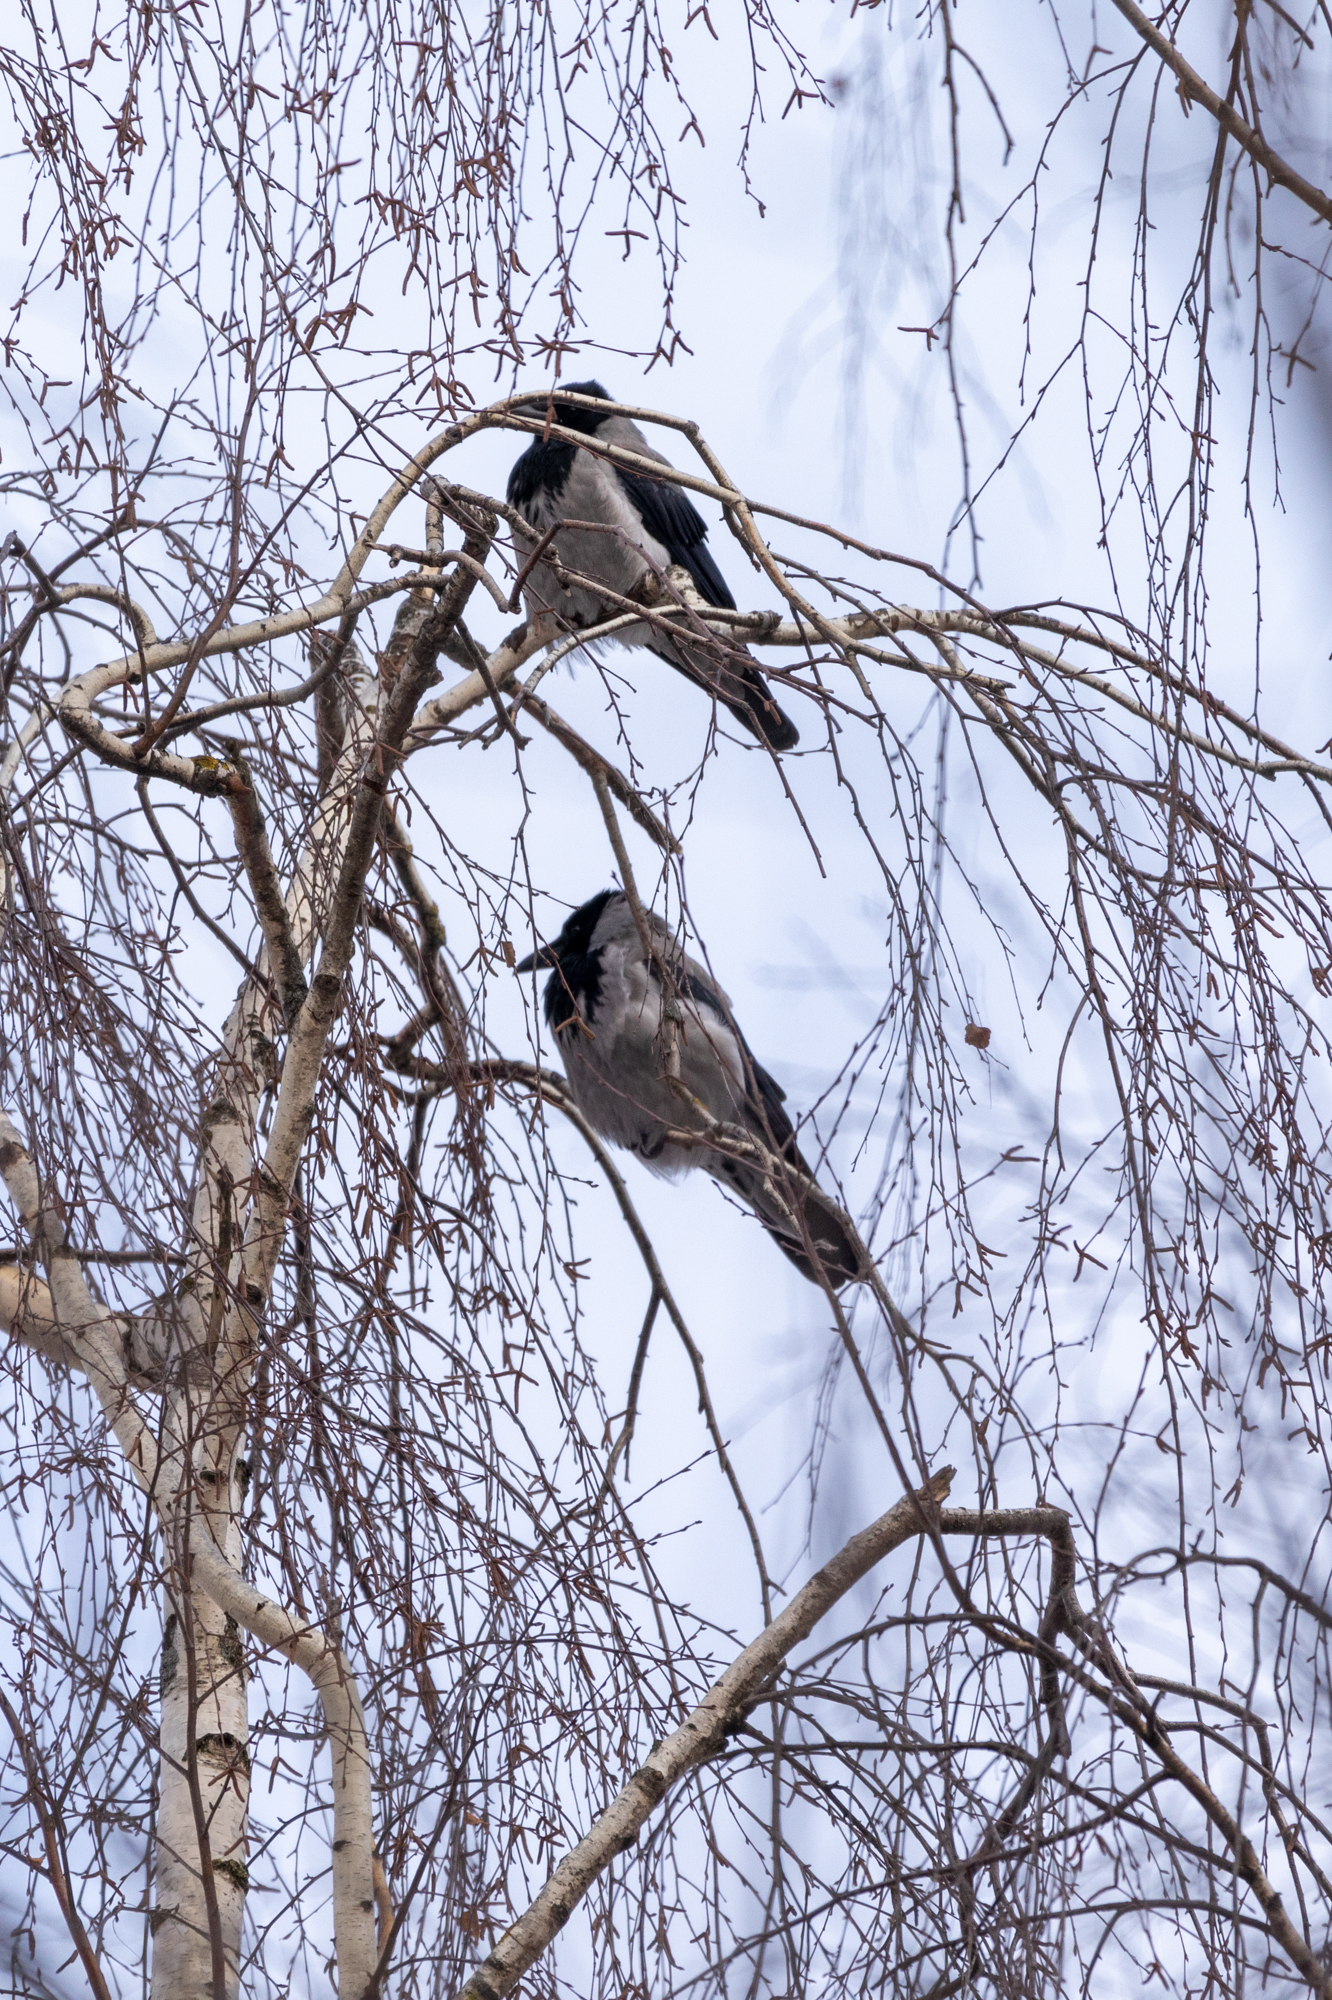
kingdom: Animalia
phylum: Chordata
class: Aves
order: Passeriformes
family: Corvidae
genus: Corvus
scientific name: Corvus cornix
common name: Hooded crow
